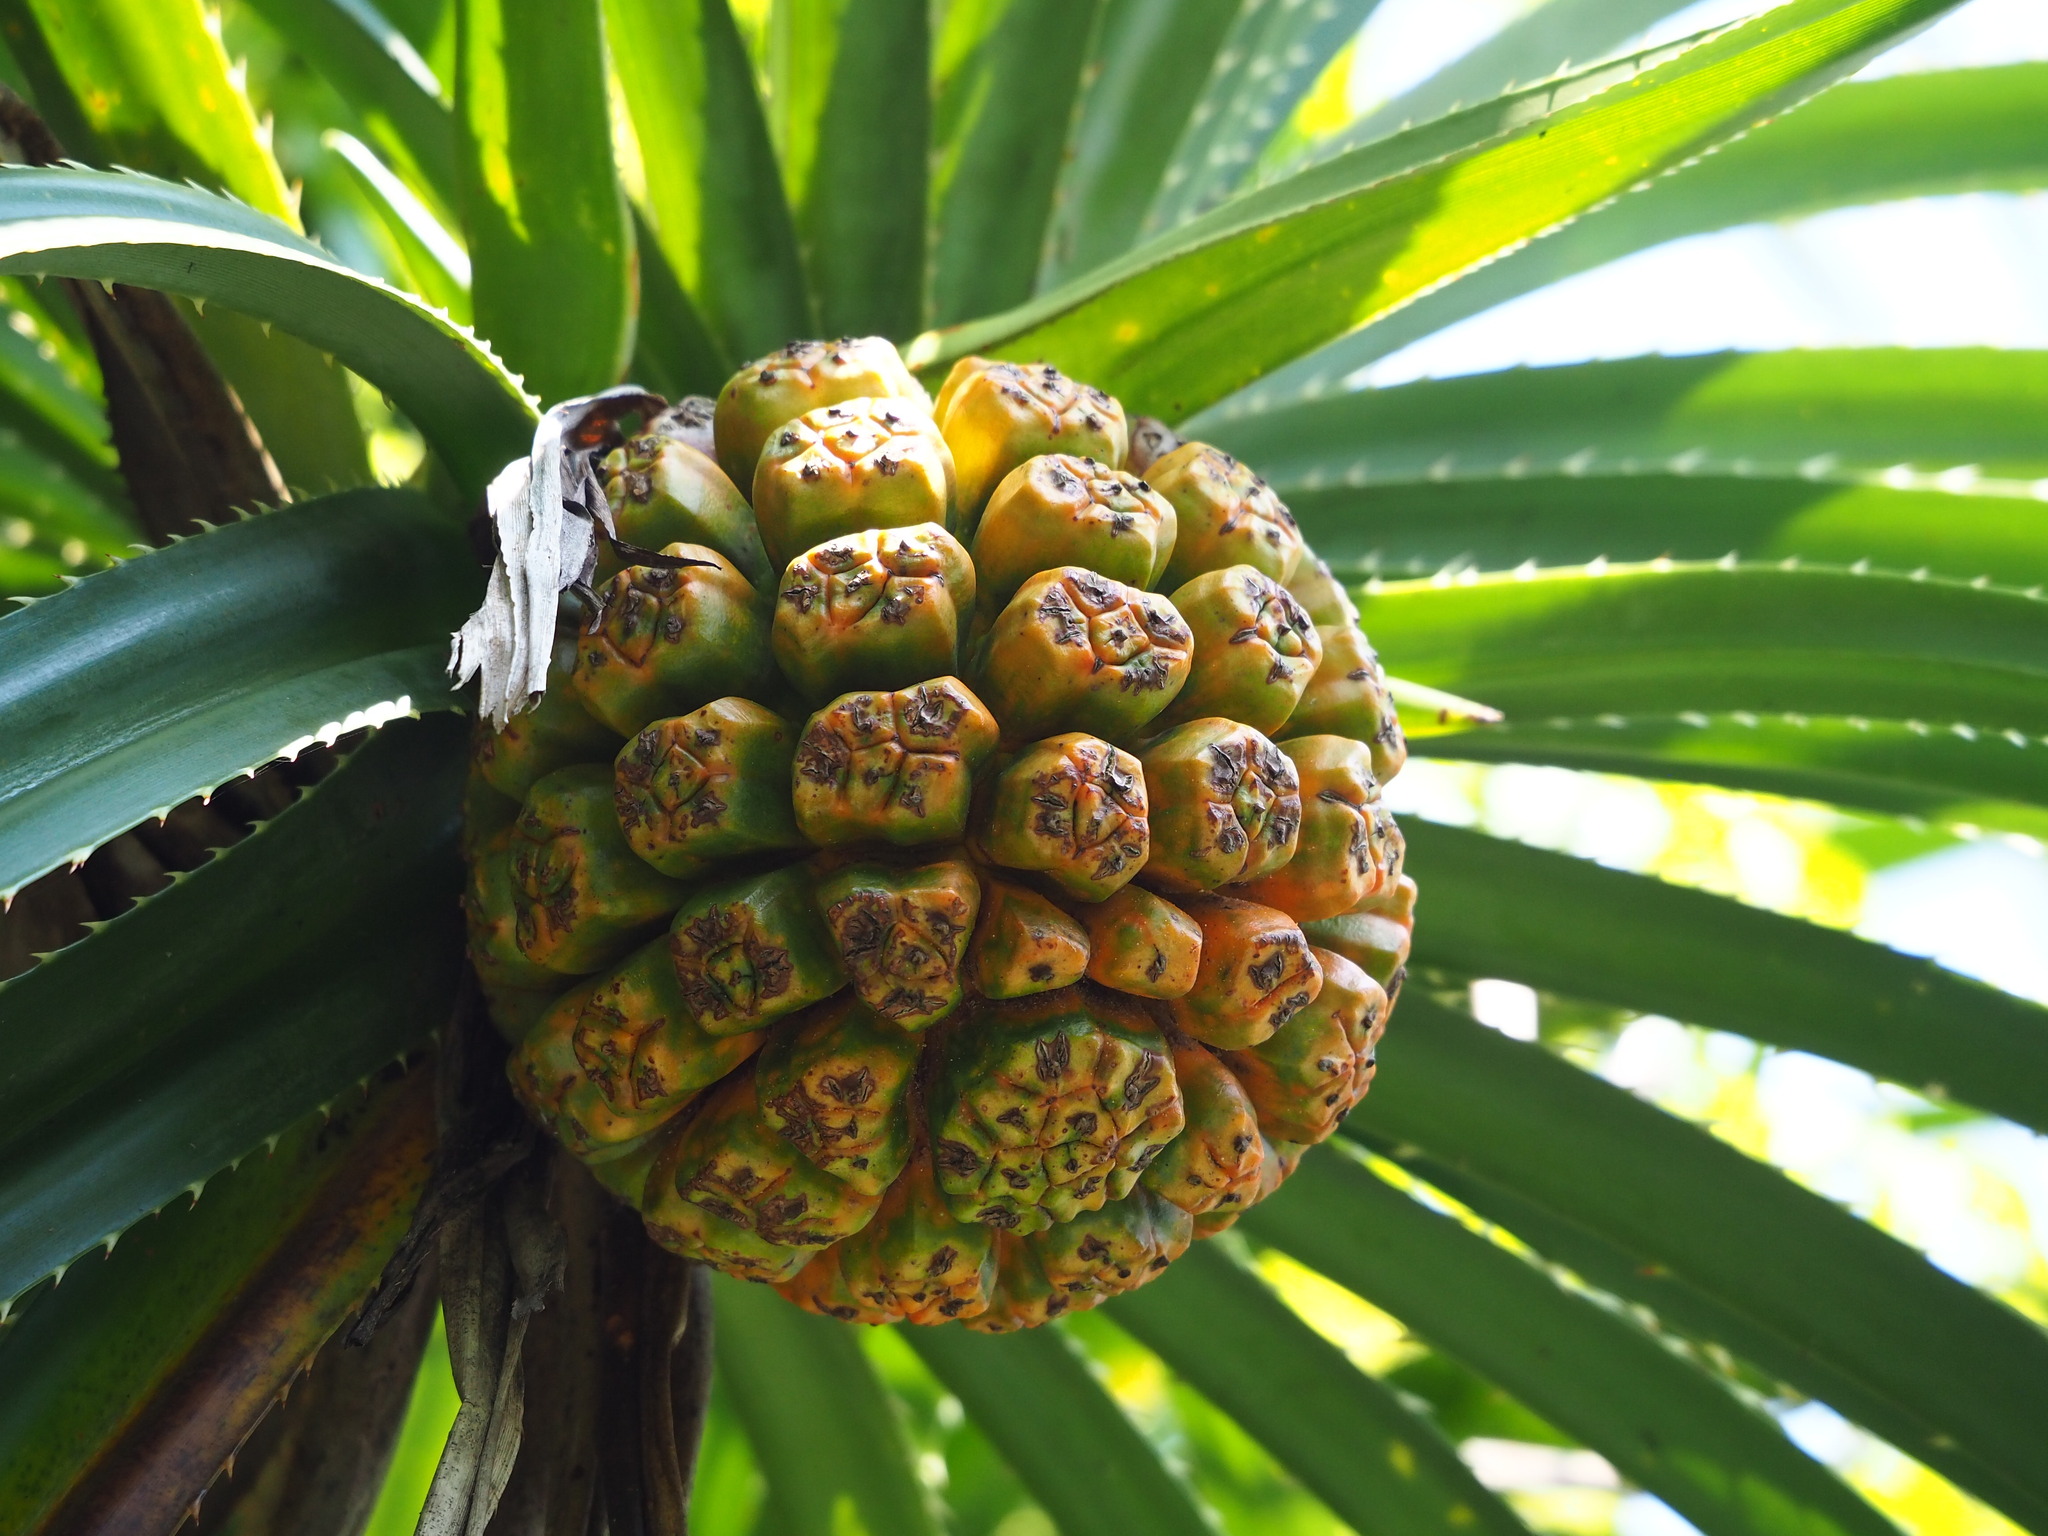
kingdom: Plantae
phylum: Tracheophyta
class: Liliopsida
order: Pandanales
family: Pandanaceae
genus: Pandanus
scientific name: Pandanus odorifer
